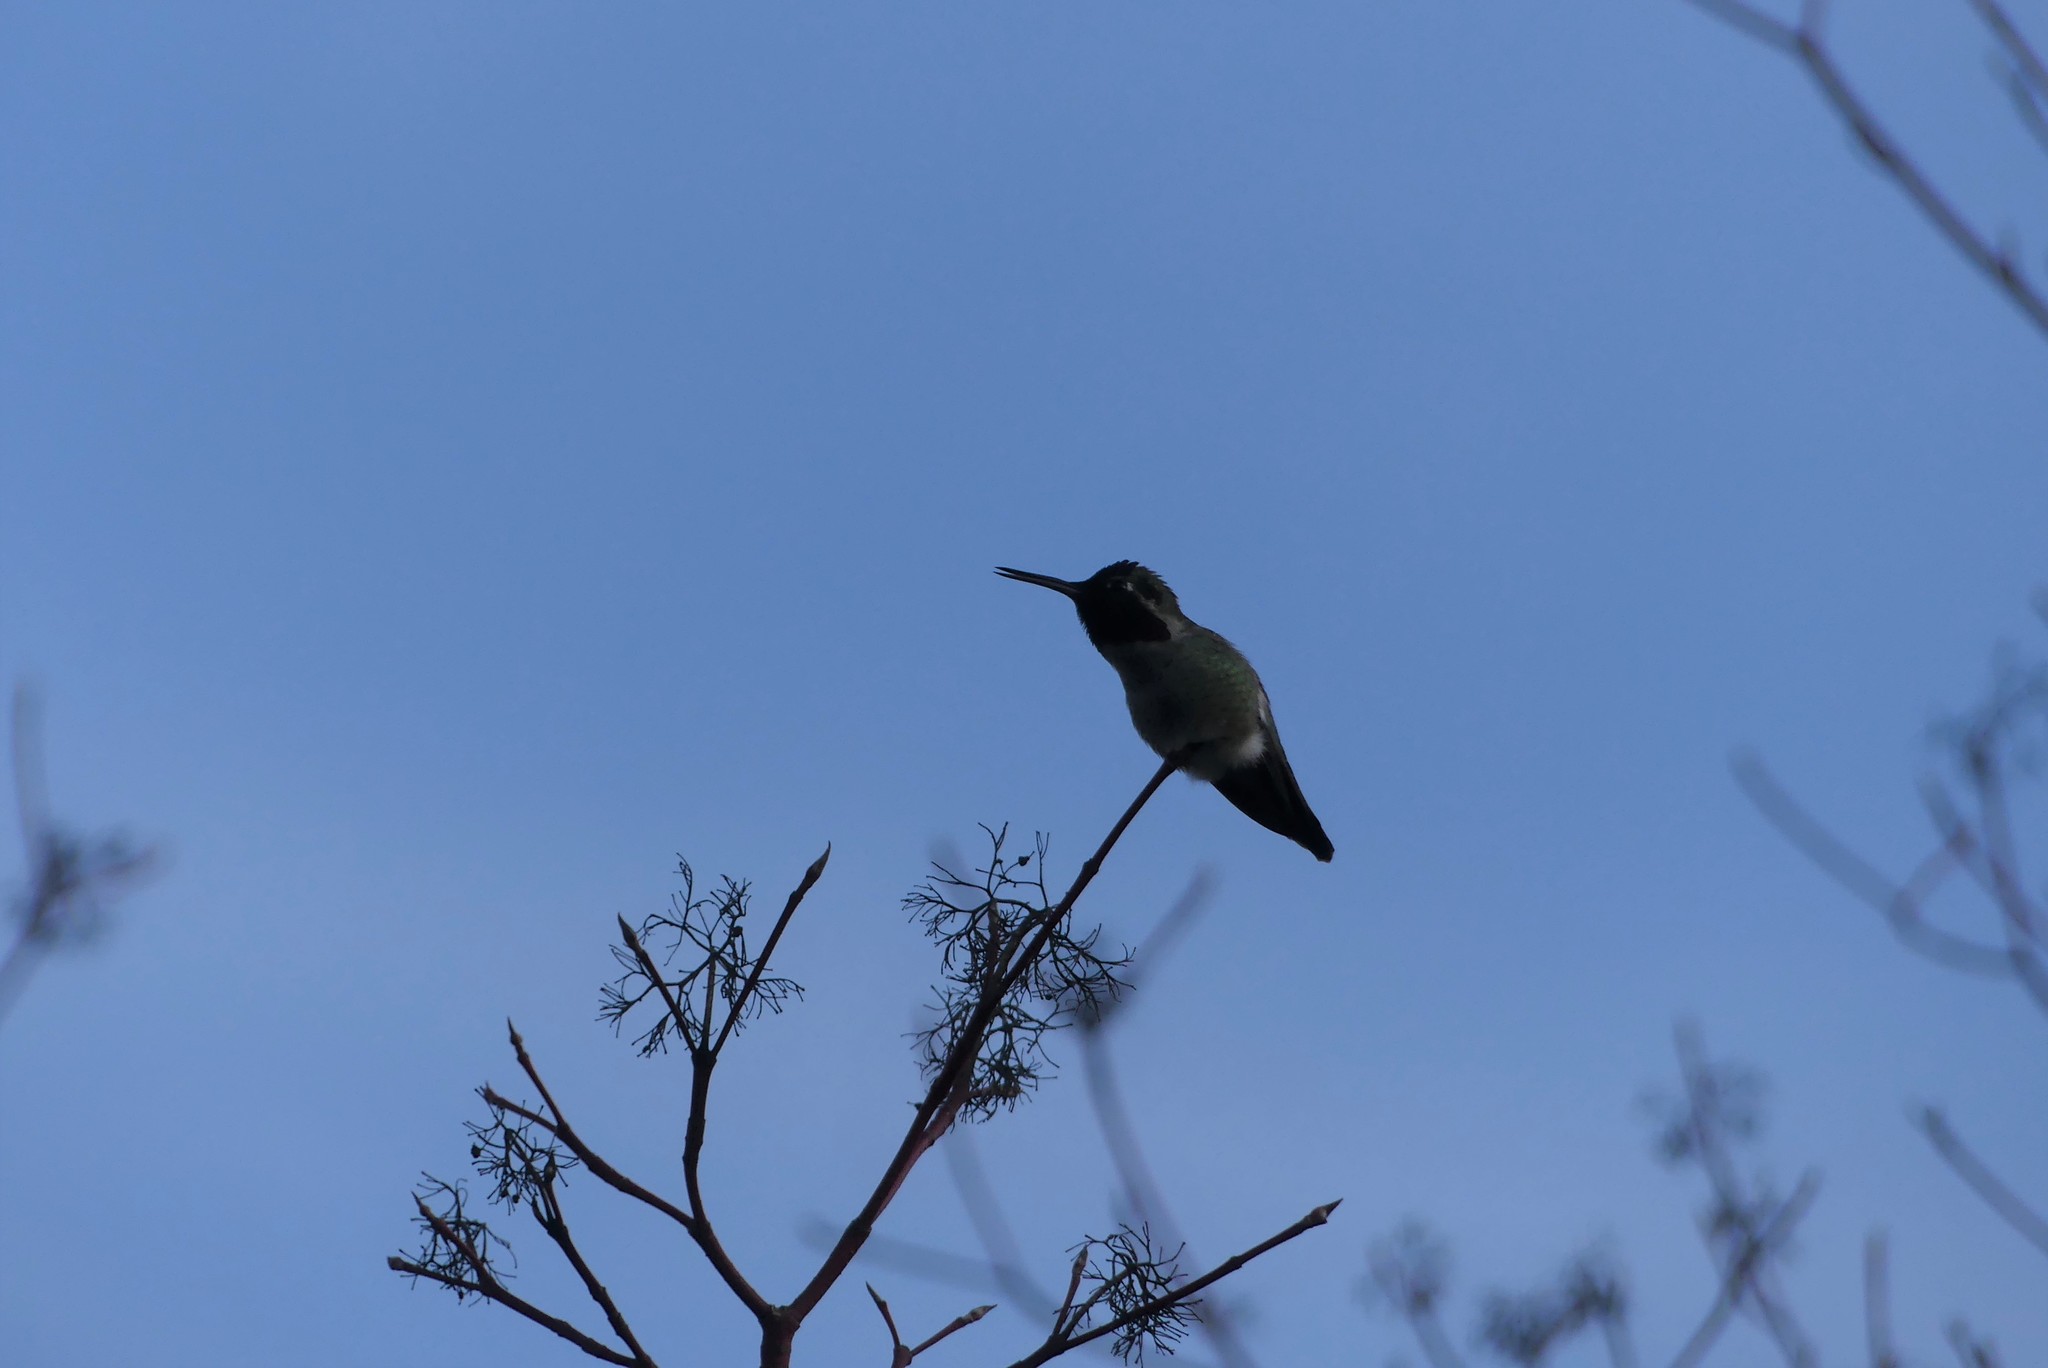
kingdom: Animalia
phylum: Chordata
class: Aves
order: Apodiformes
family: Trochilidae
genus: Calypte
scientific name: Calypte anna
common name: Anna's hummingbird
